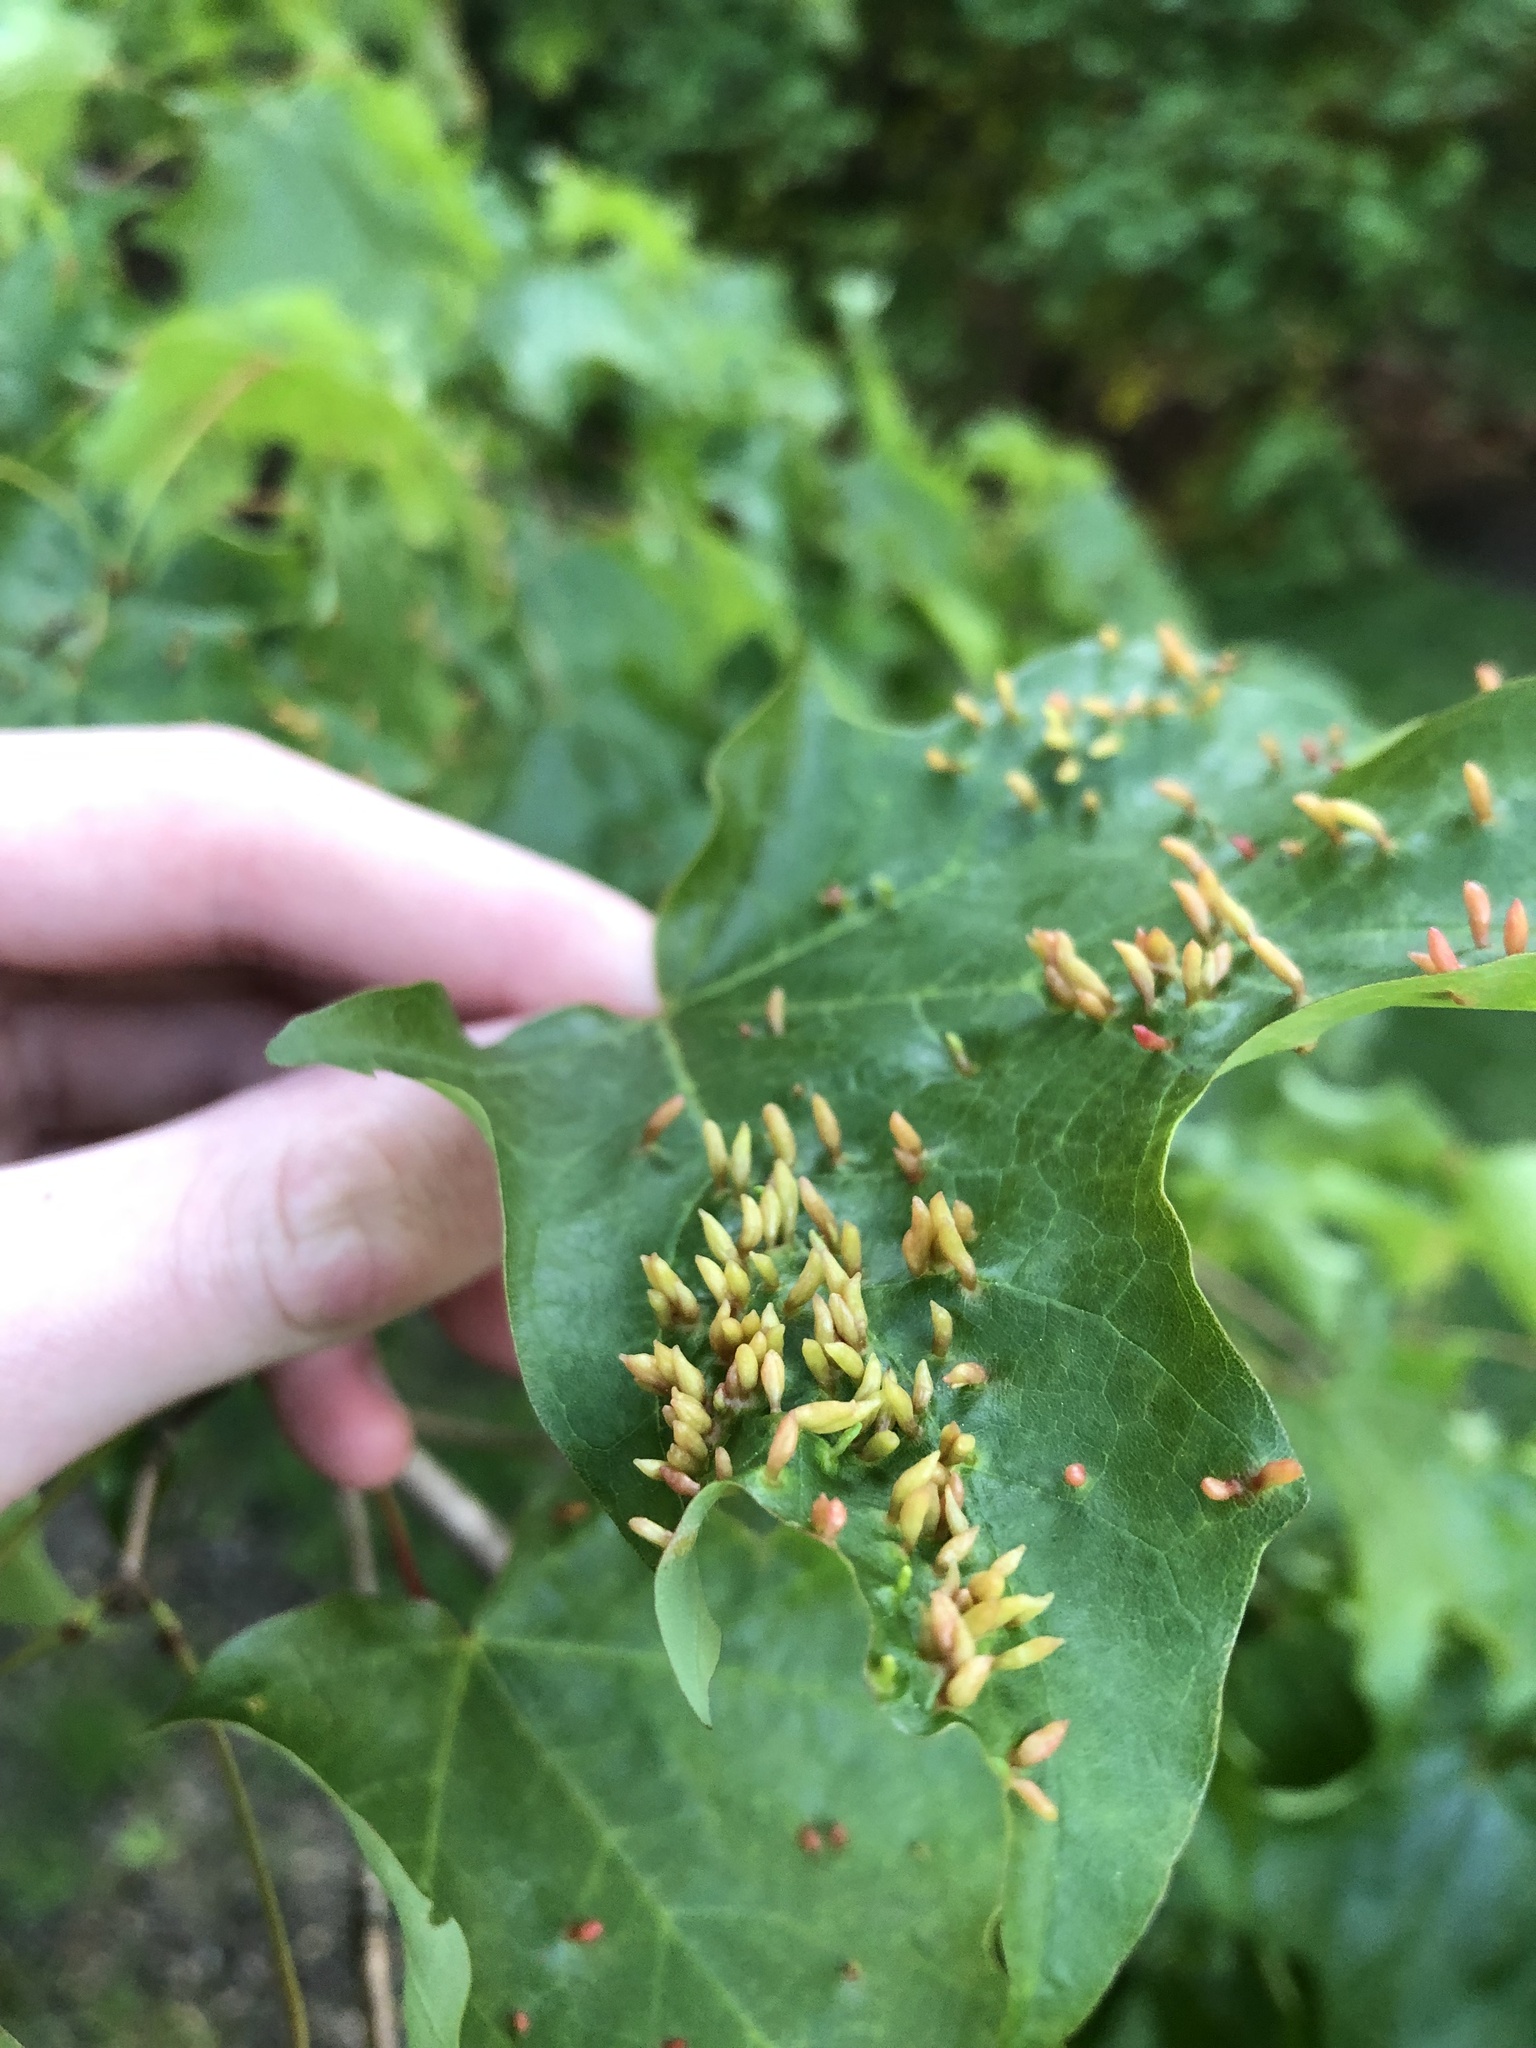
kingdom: Animalia
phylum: Arthropoda
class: Arachnida
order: Trombidiformes
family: Eriophyidae
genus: Vasates
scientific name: Vasates aceriscrumena
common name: Maple spindle gall mite
